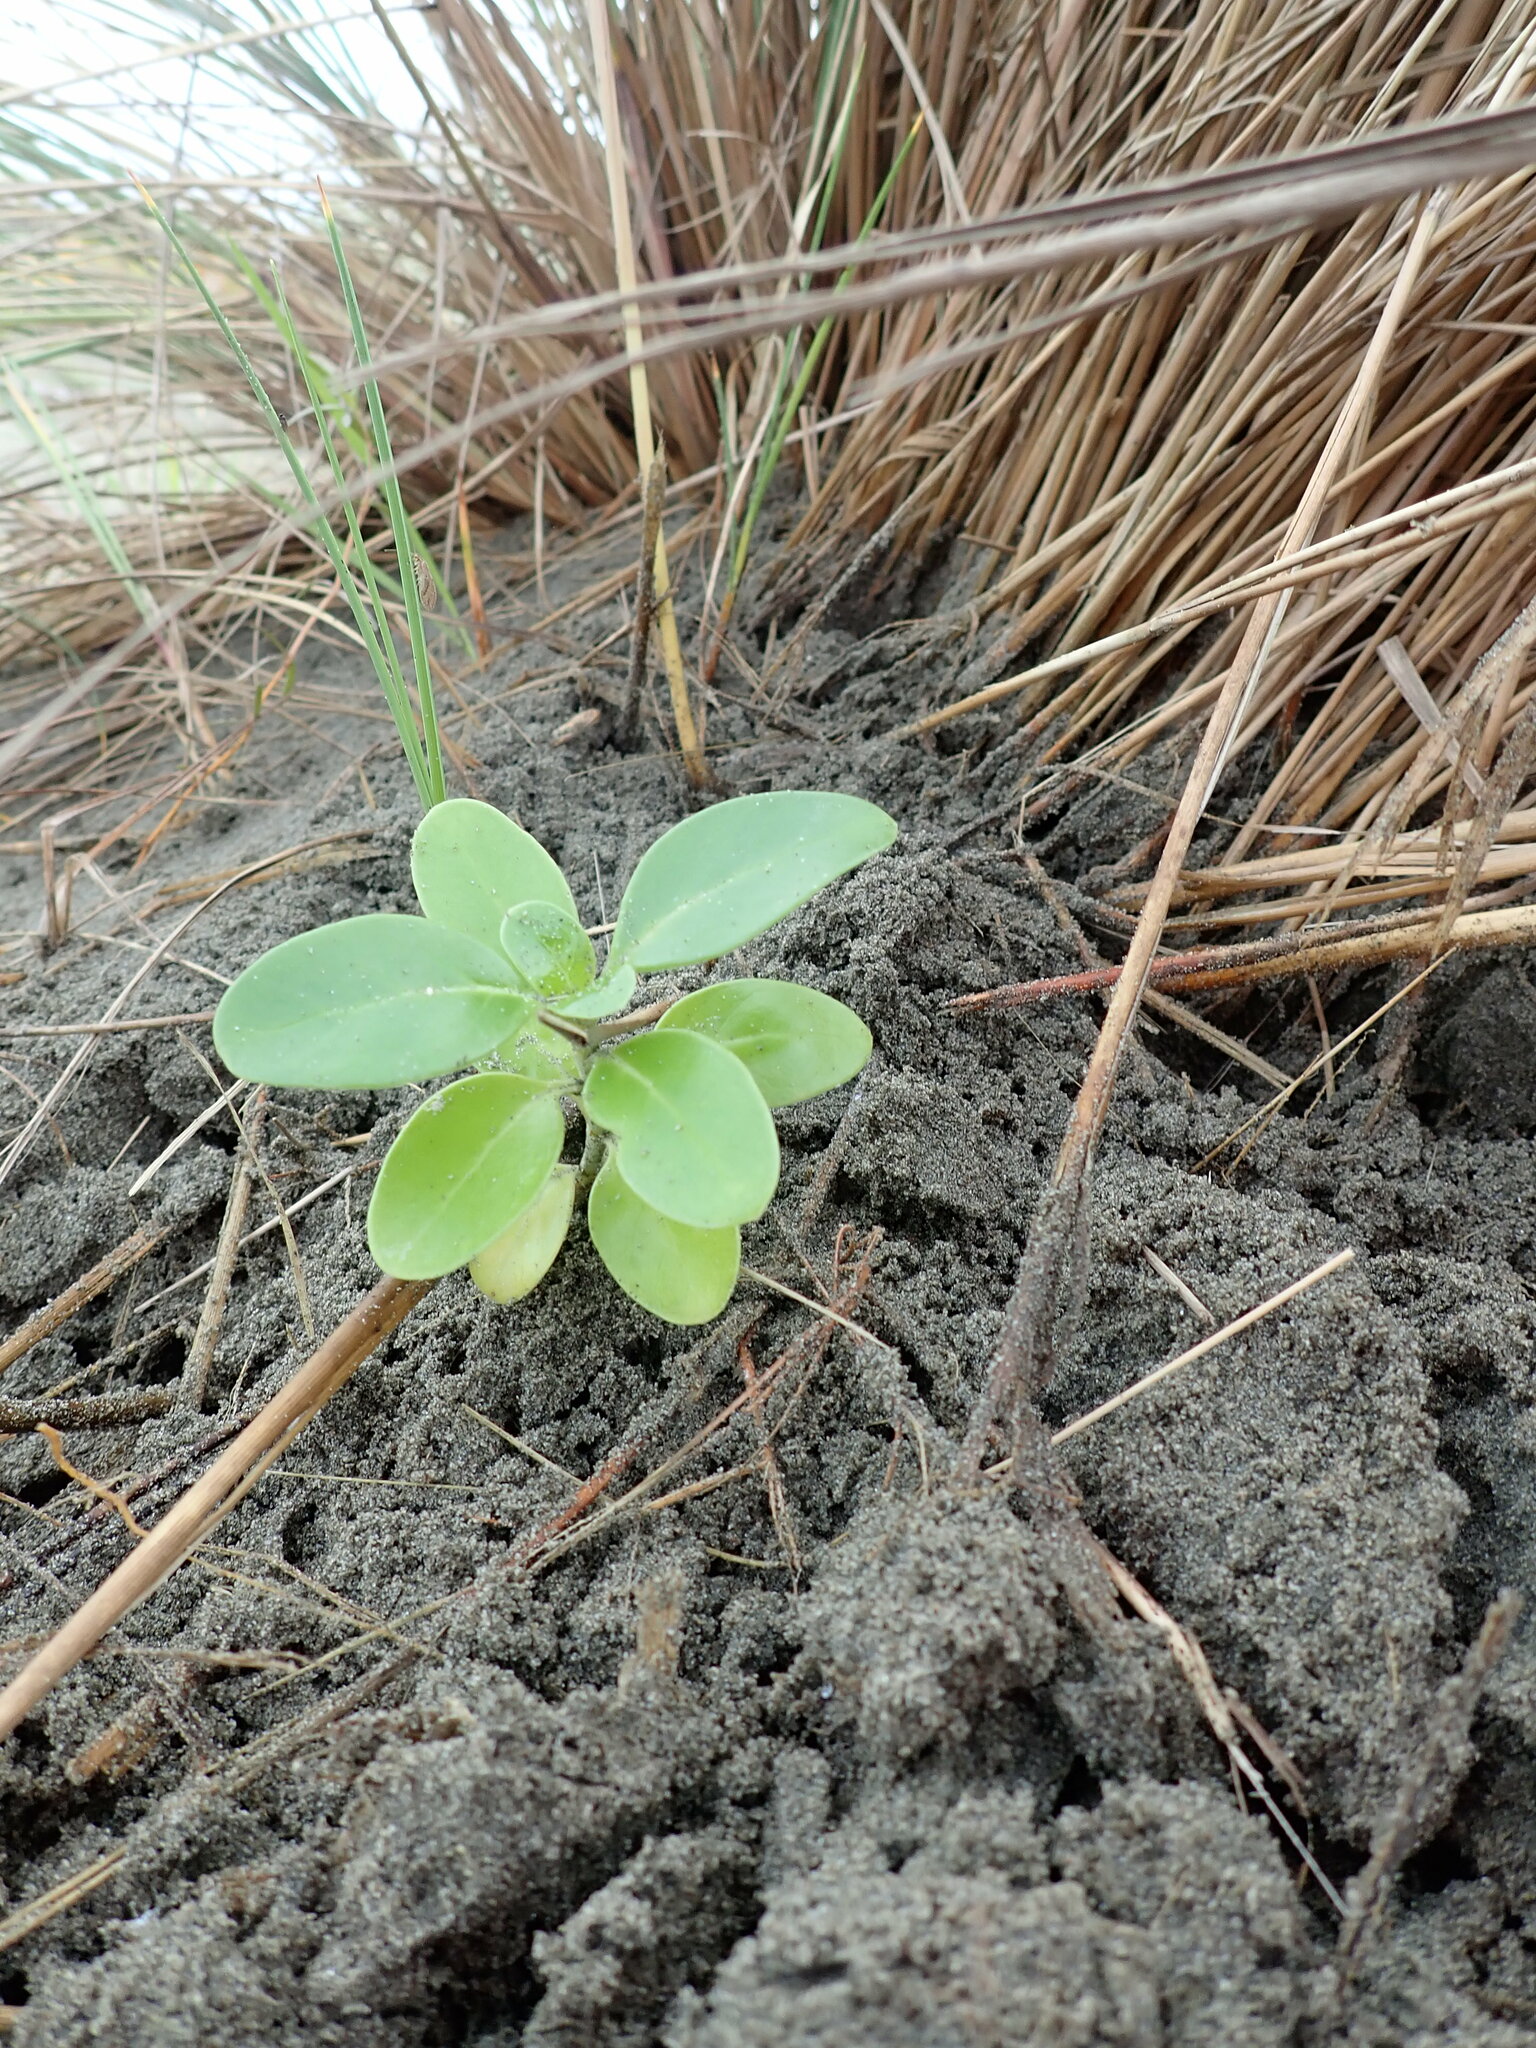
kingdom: Plantae
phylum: Tracheophyta
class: Magnoliopsida
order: Gentianales
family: Rubiaceae
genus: Coprosma
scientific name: Coprosma repens
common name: Tree bedstraw
